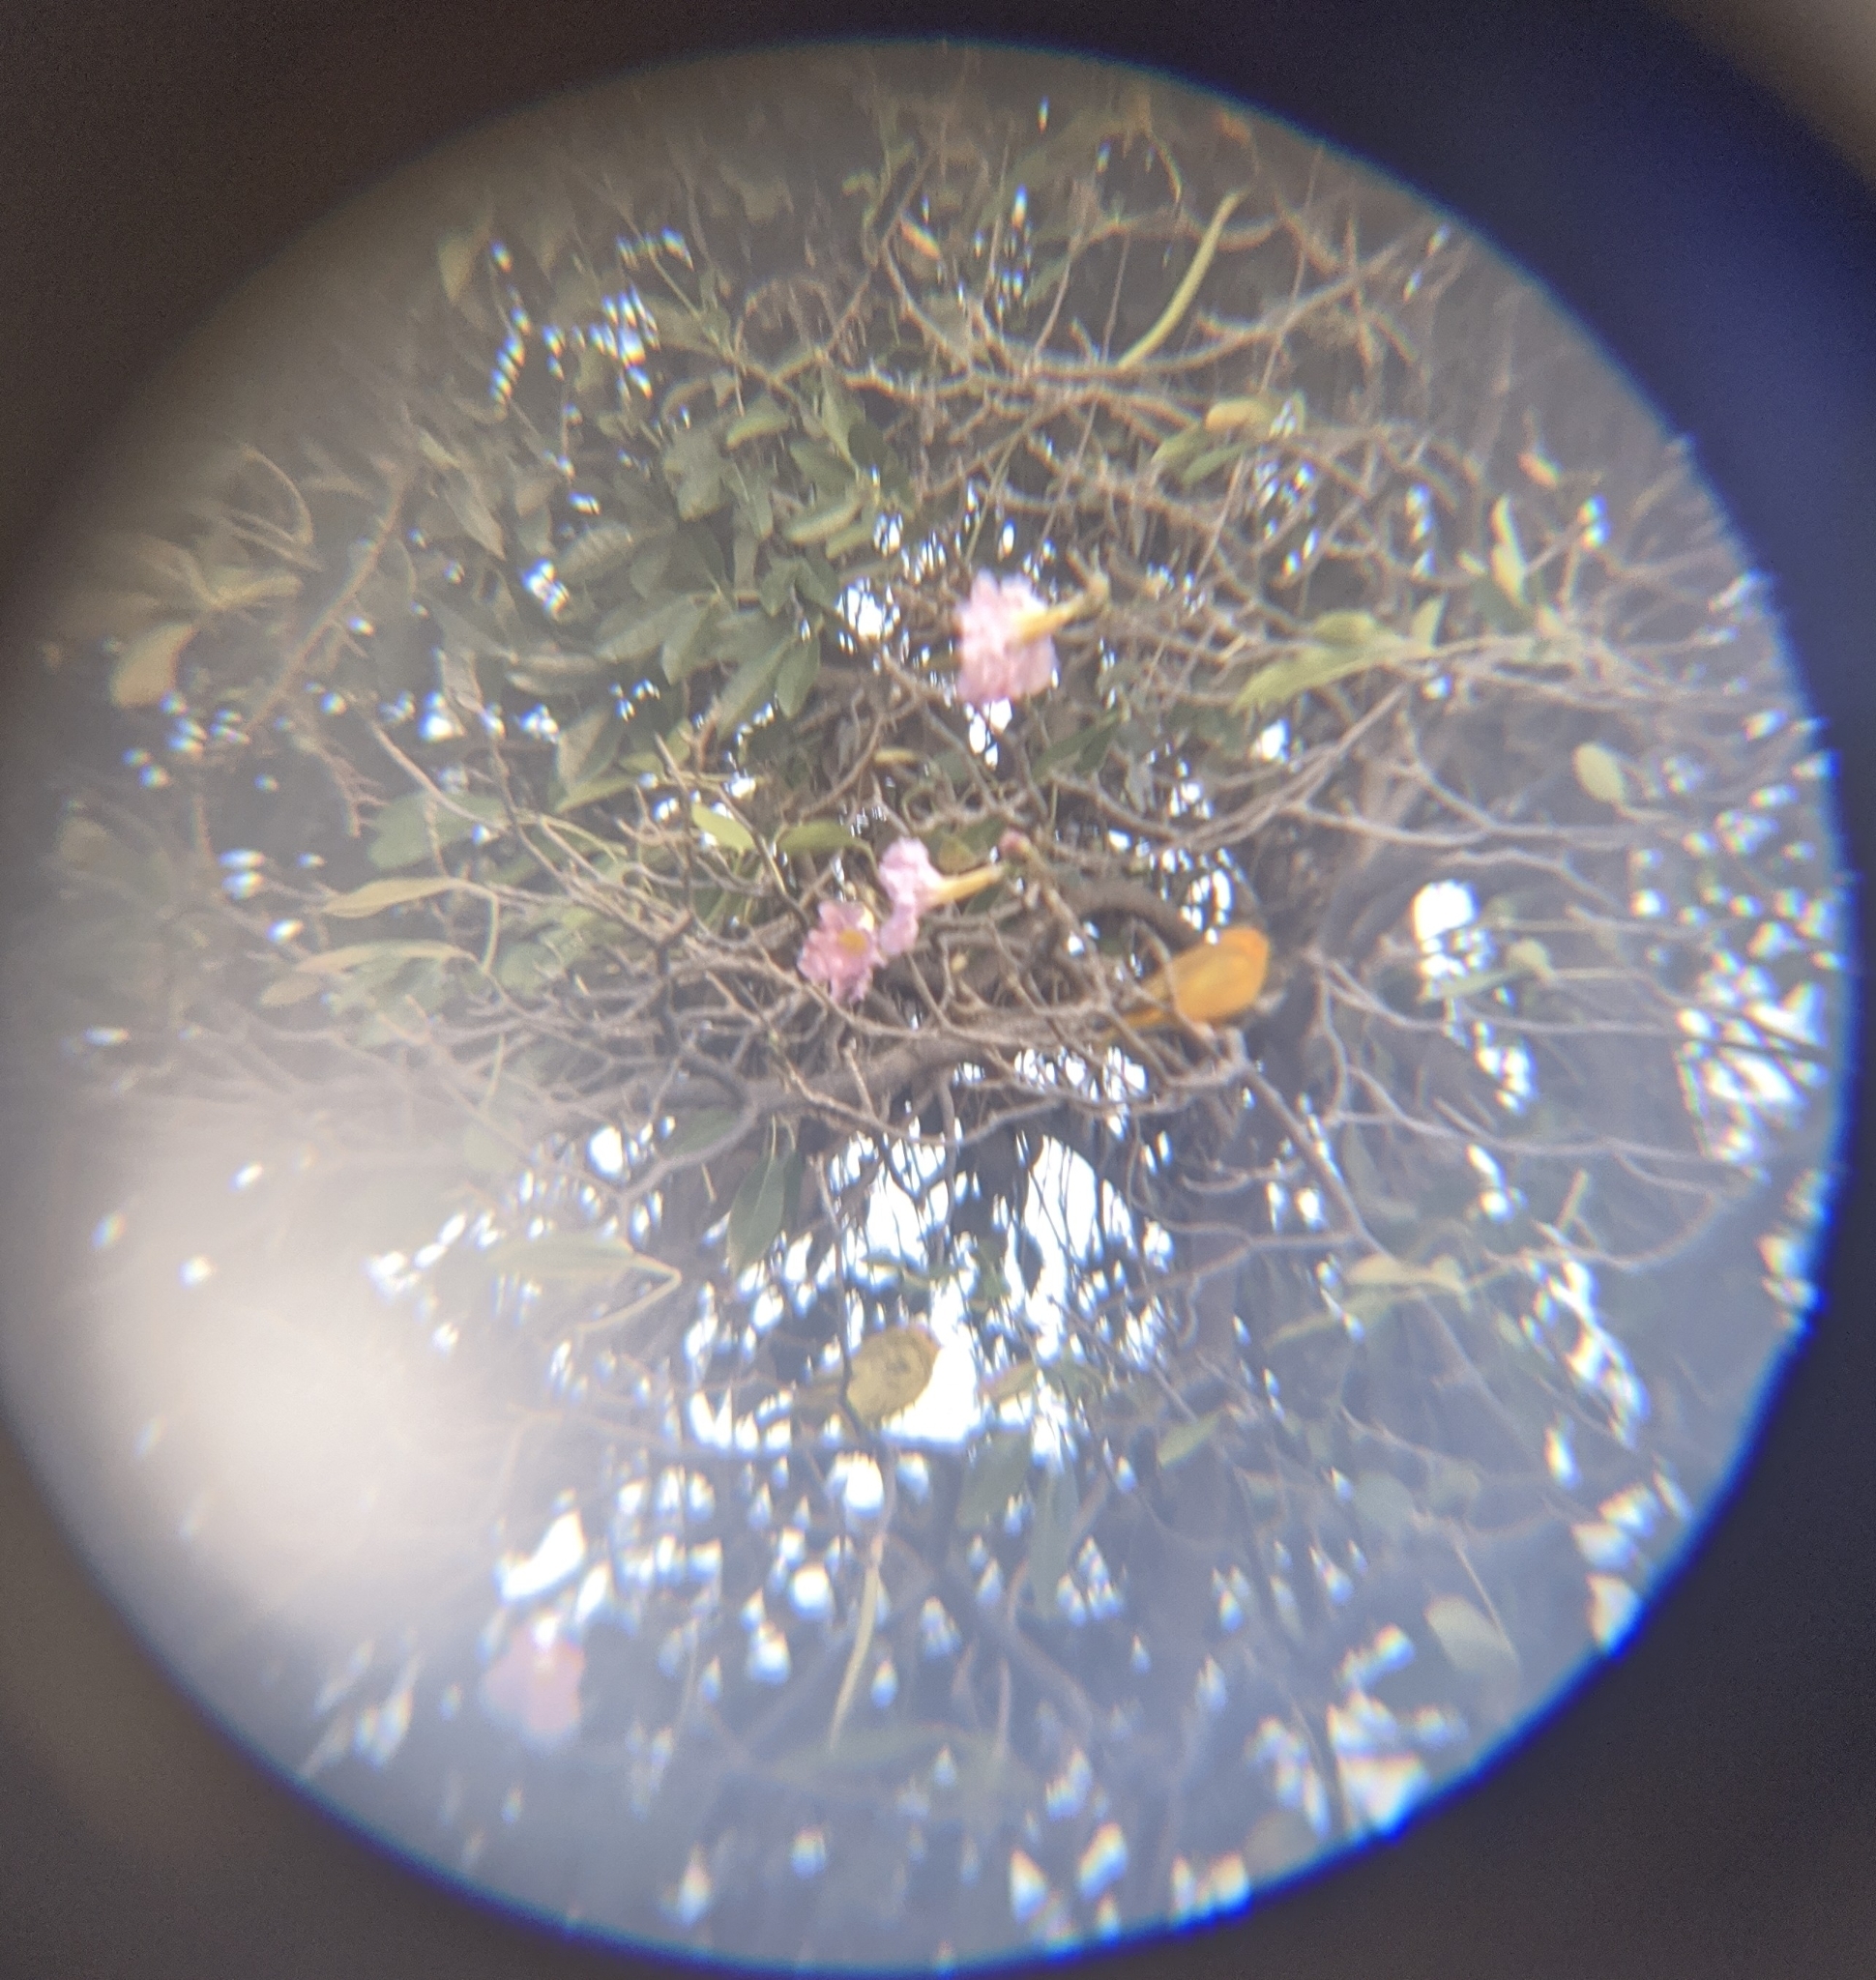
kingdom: Animalia
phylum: Chordata
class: Aves
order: Passeriformes
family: Thraupidae
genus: Sicalis
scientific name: Sicalis flaveola
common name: Saffron finch
